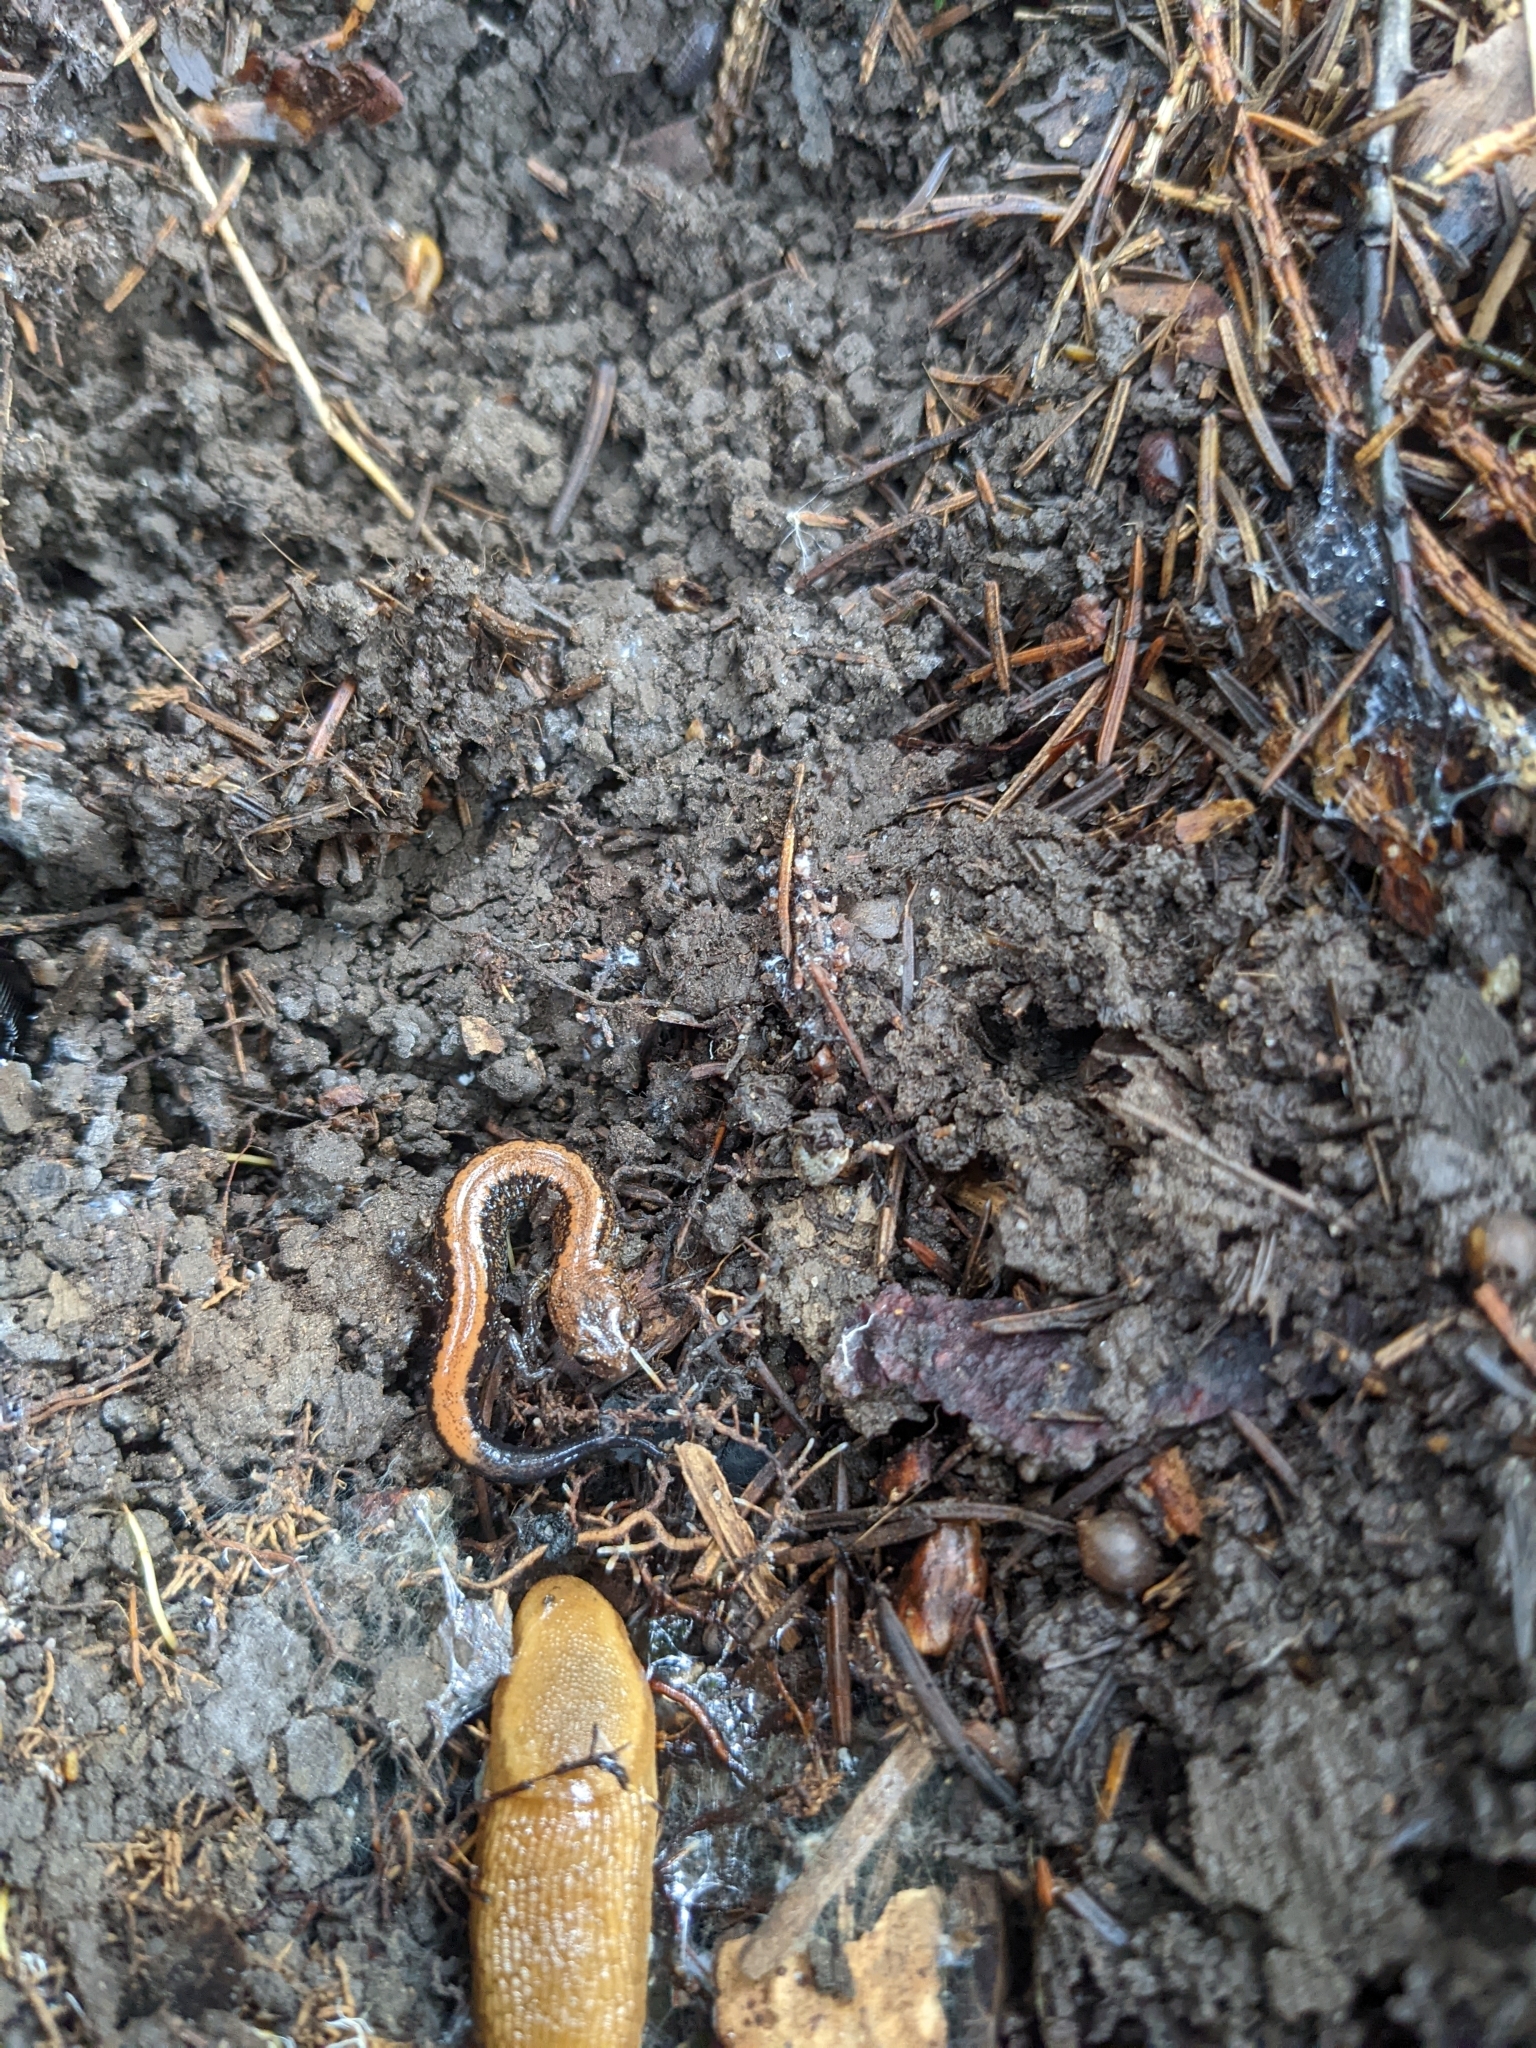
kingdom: Animalia
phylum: Chordata
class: Amphibia
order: Caudata
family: Plethodontidae
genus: Plethodon
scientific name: Plethodon cinereus
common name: Redback salamander
